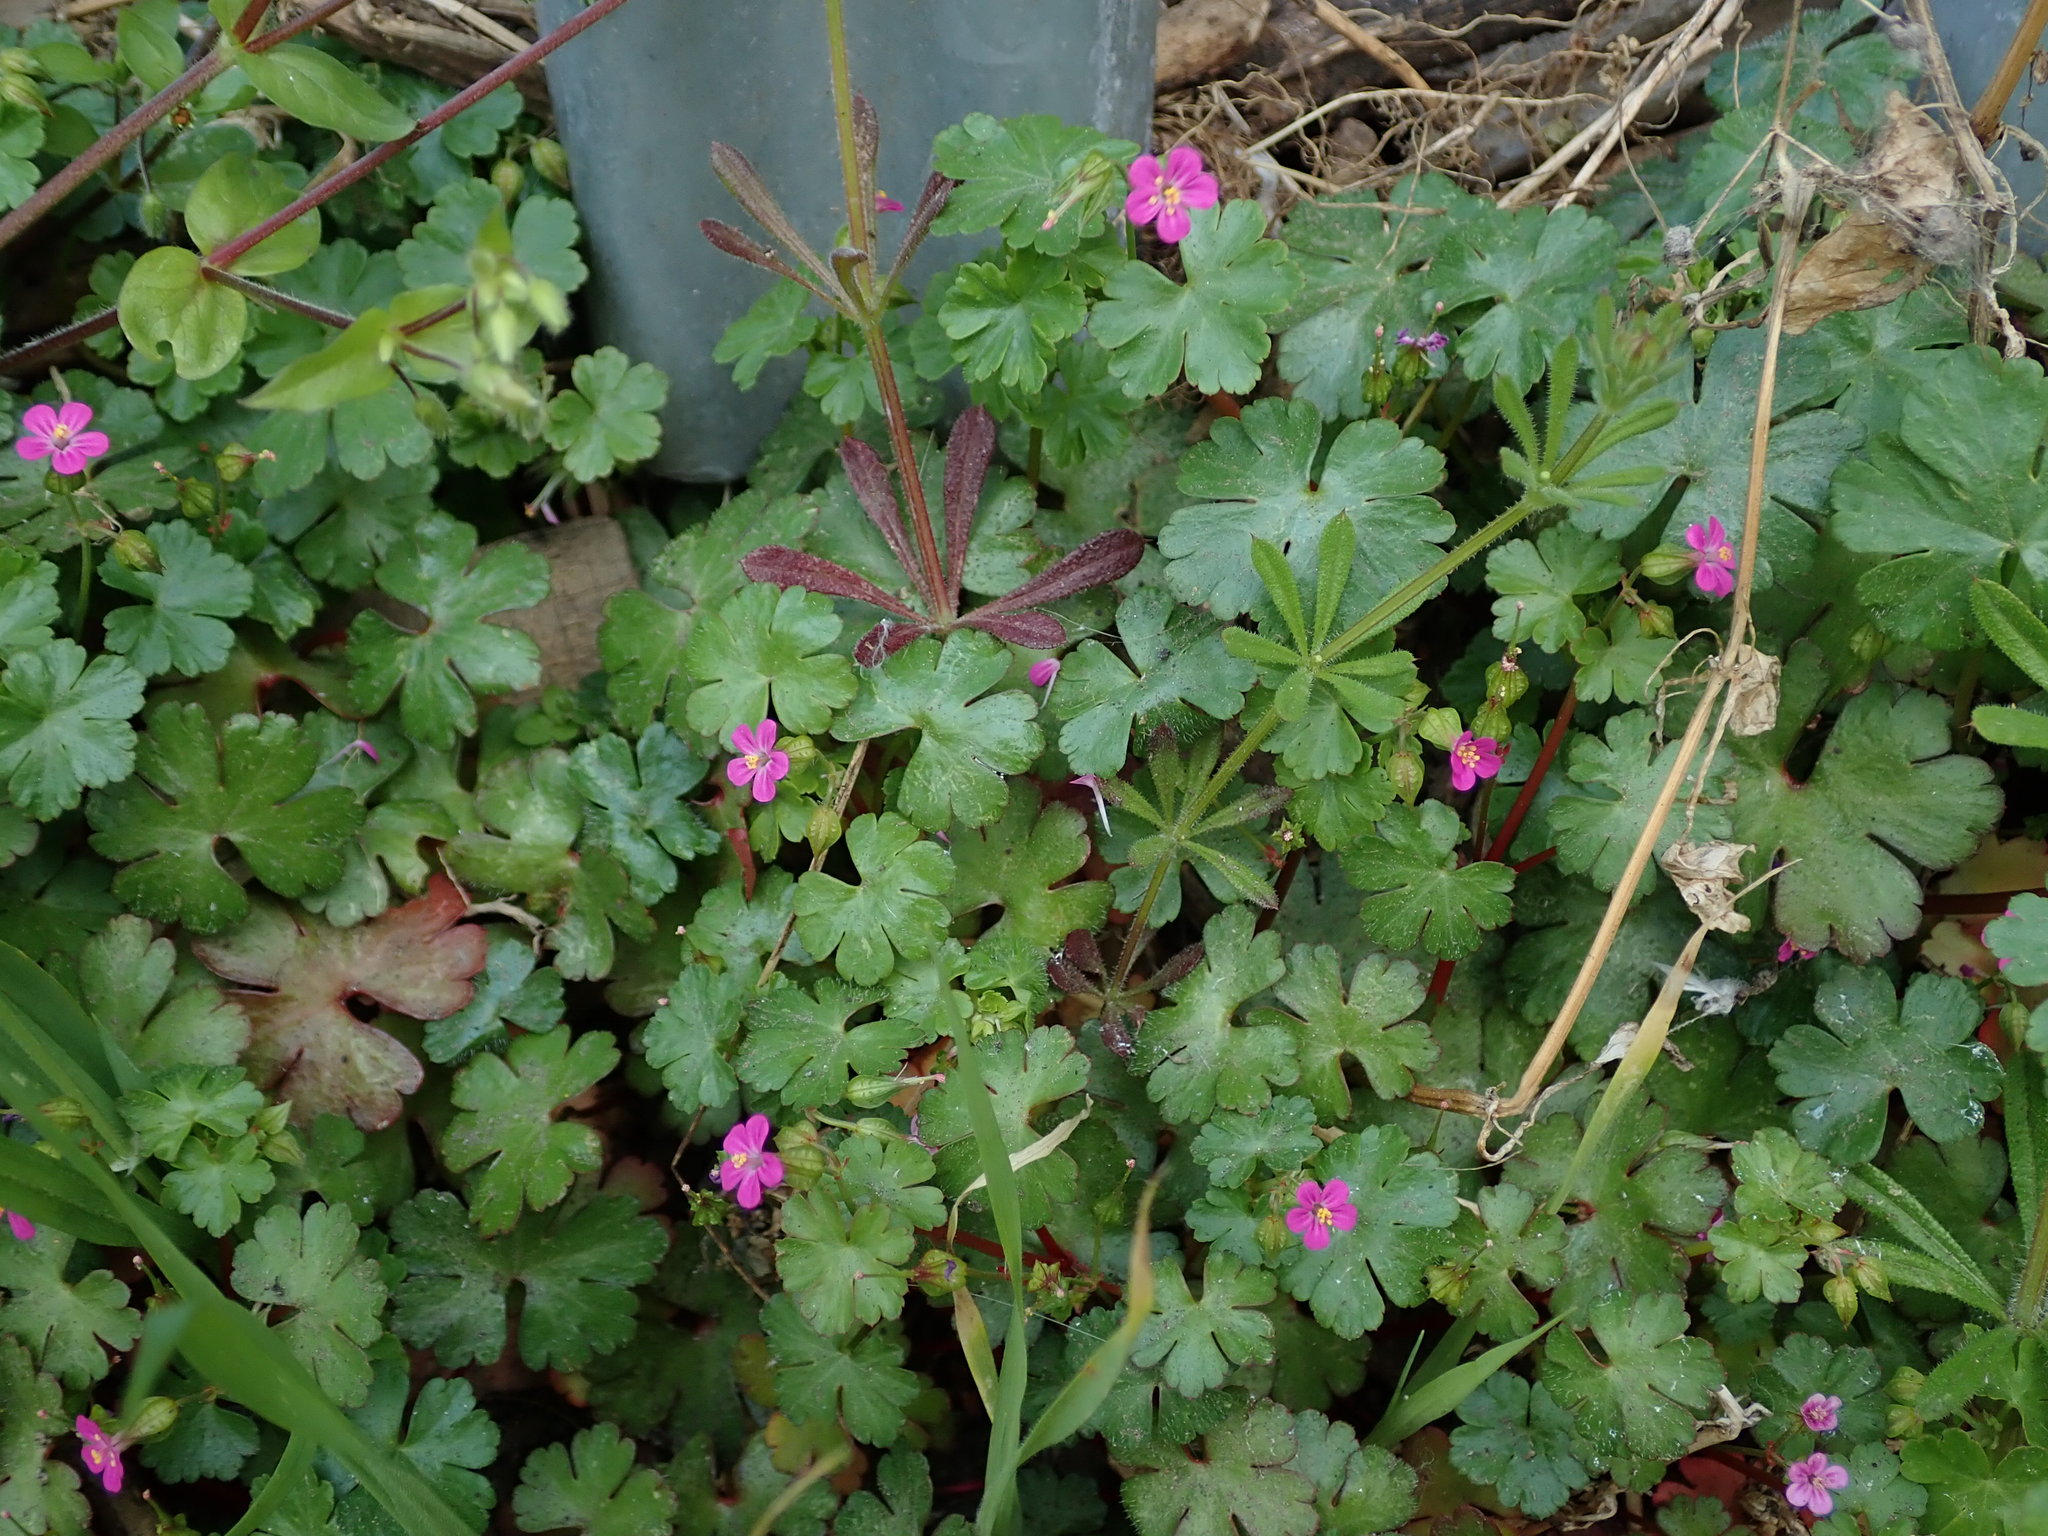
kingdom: Plantae
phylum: Tracheophyta
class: Magnoliopsida
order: Geraniales
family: Geraniaceae
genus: Geranium
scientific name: Geranium lucidum
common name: Shining crane's-bill
